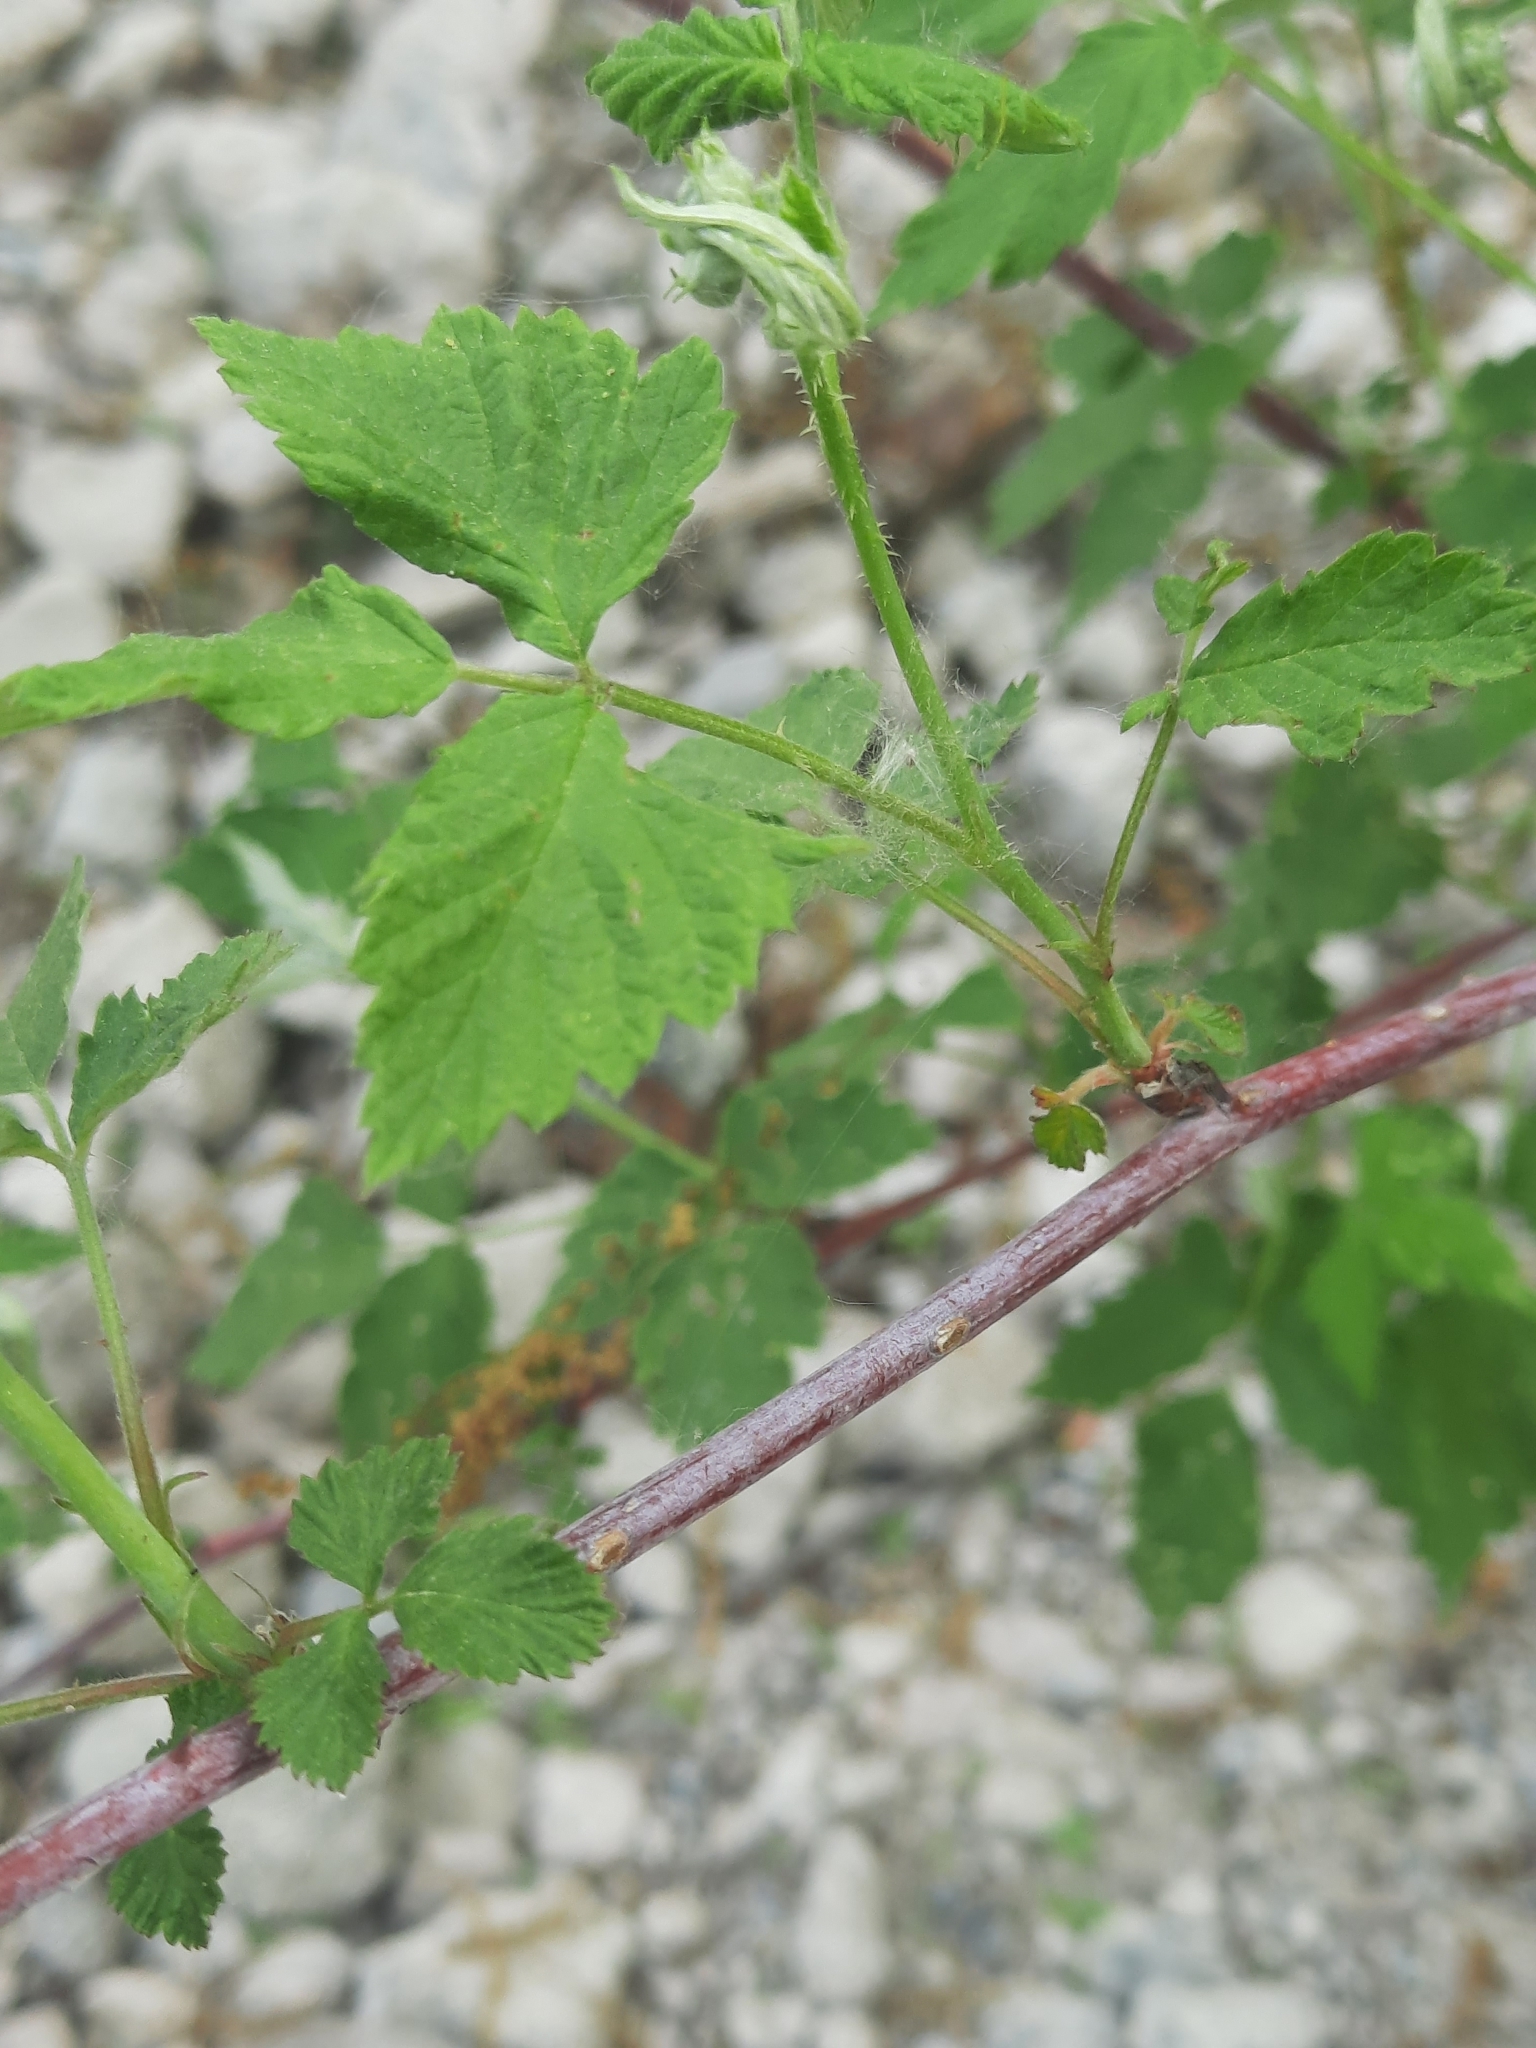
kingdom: Plantae
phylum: Tracheophyta
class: Magnoliopsida
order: Rosales
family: Rosaceae
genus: Rubus
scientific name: Rubus occidentalis
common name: Black raspberry
